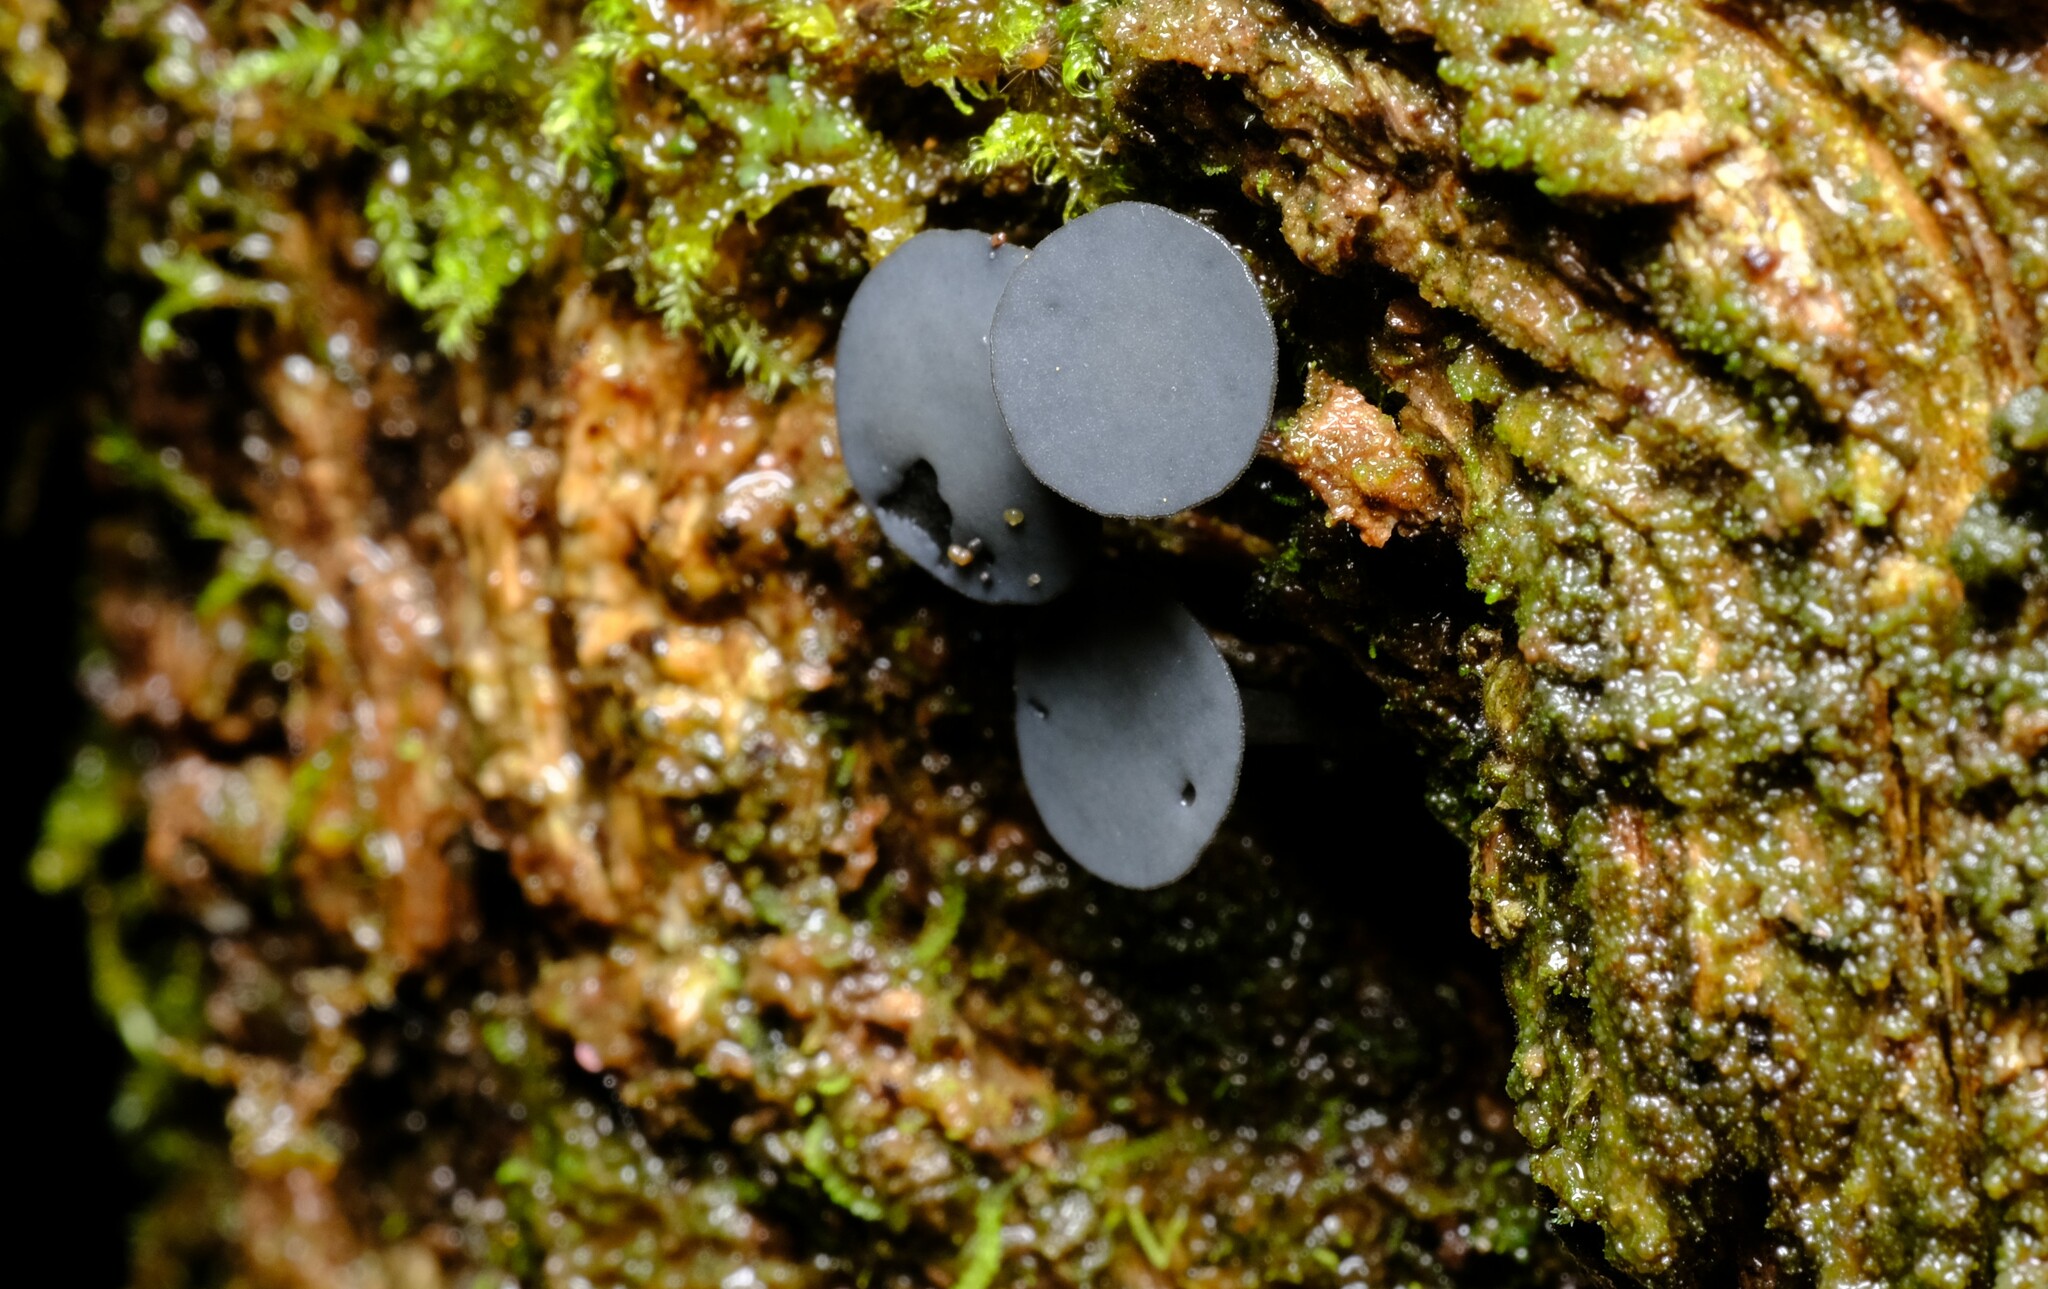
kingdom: Fungi
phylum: Ascomycota
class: Leotiomycetes
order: Helotiales
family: Rutstroemiaceae
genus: Lanzia
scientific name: Lanzia lanaripes
